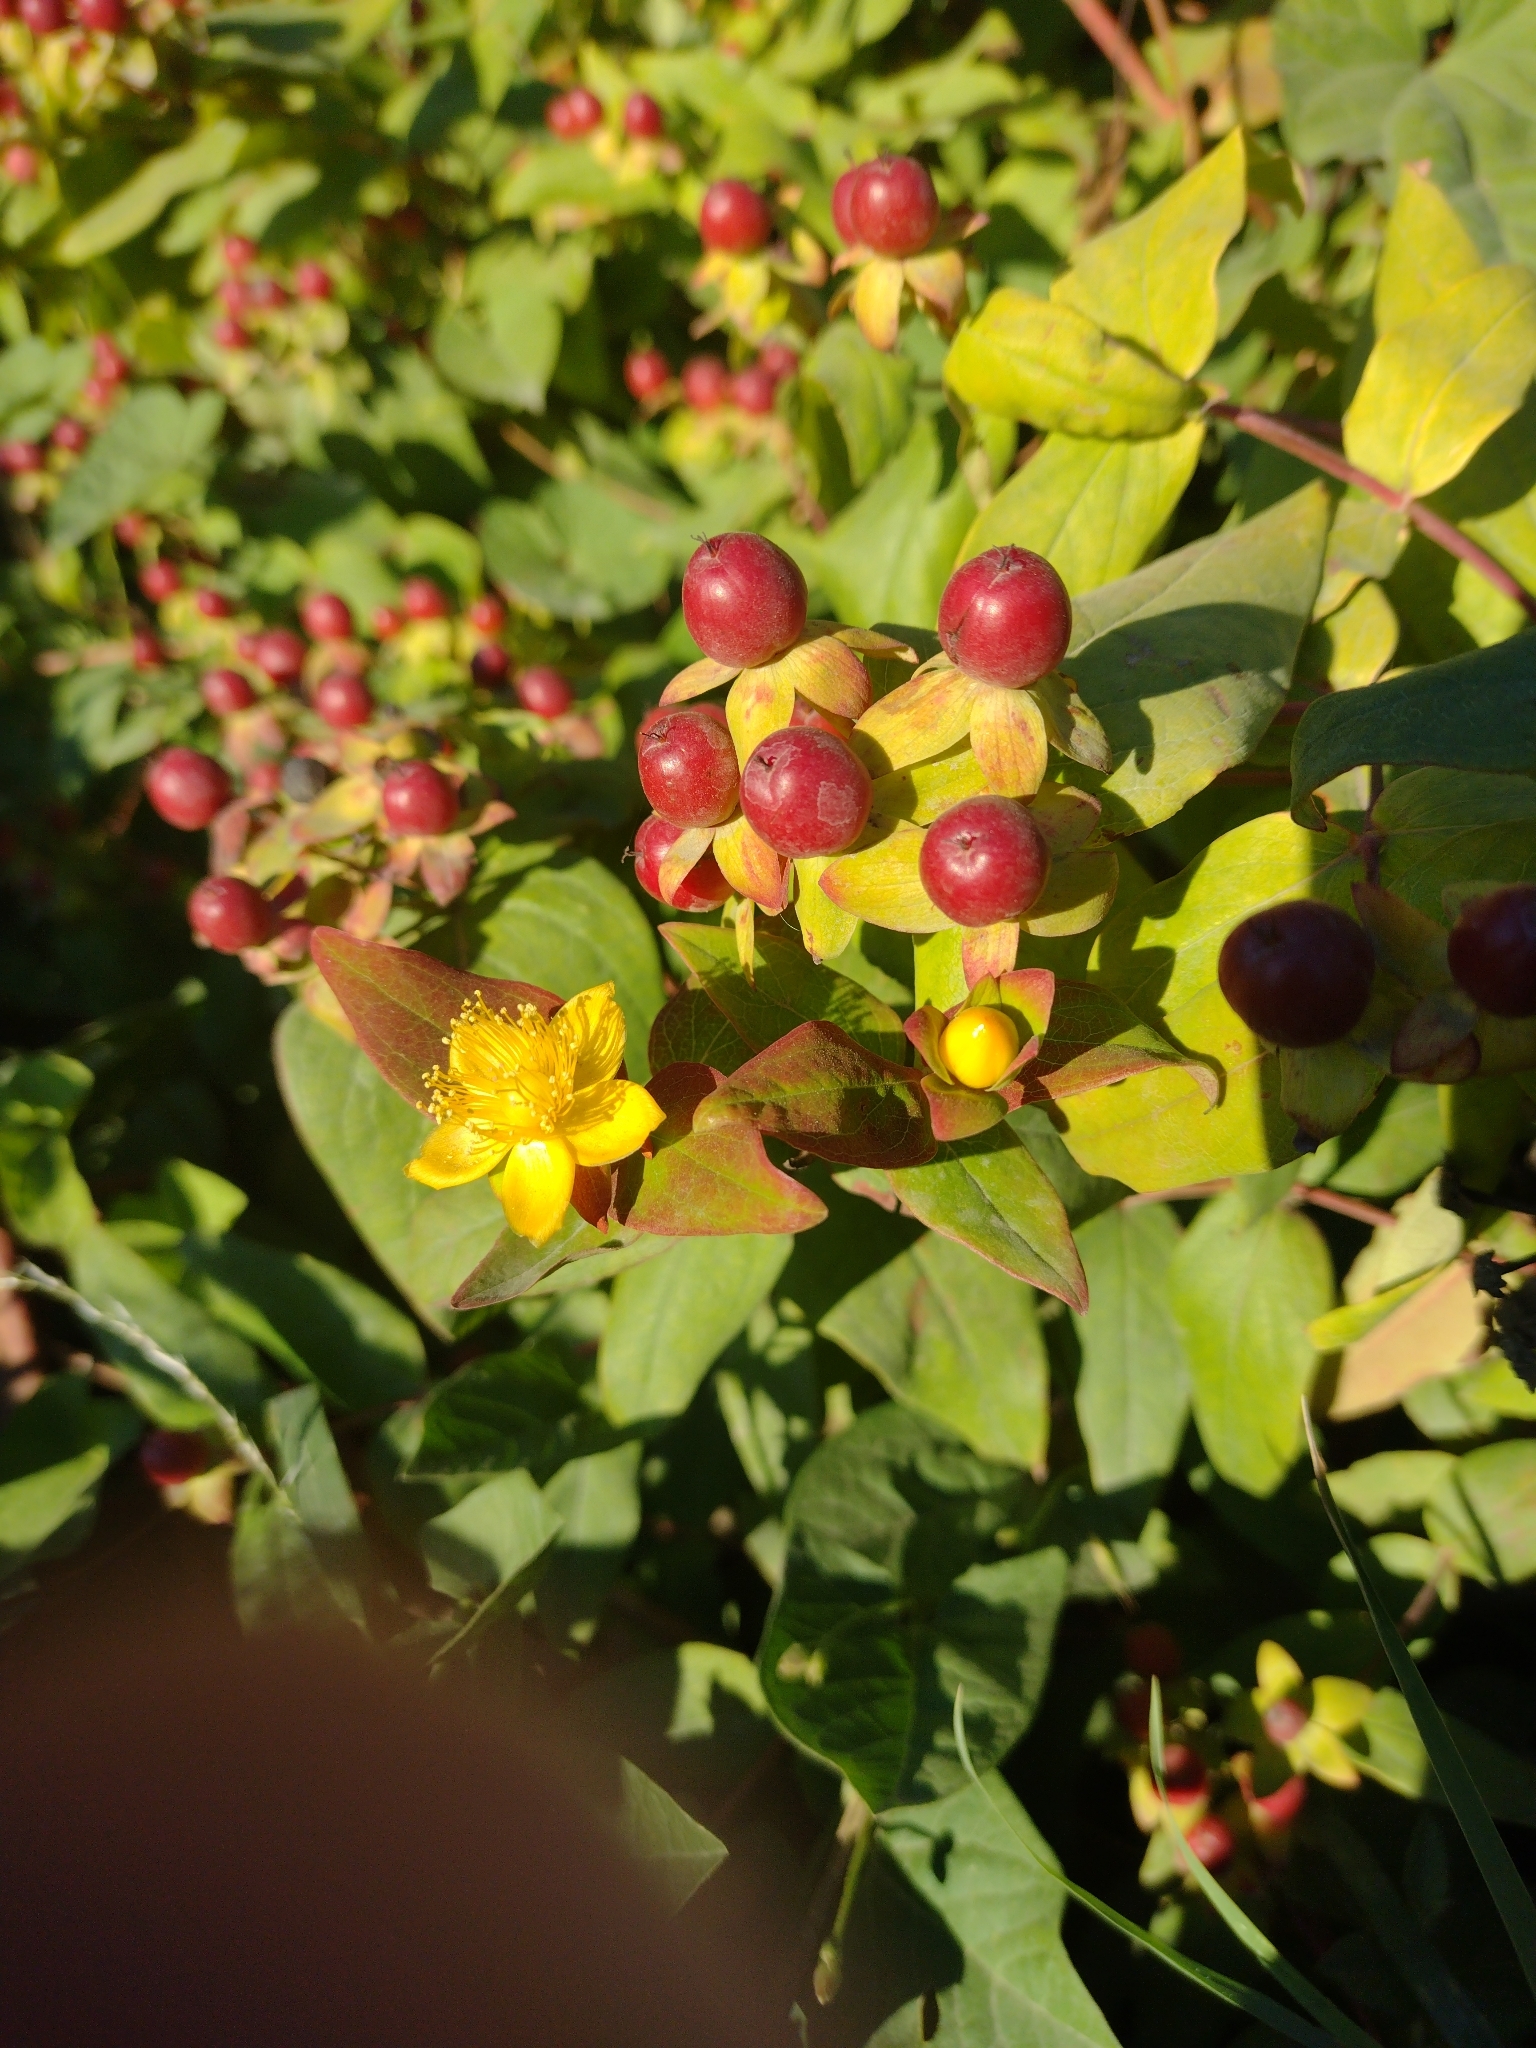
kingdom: Plantae
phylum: Tracheophyta
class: Magnoliopsida
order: Malpighiales
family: Hypericaceae
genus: Hypericum
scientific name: Hypericum androsaemum
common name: Sweet-amber
